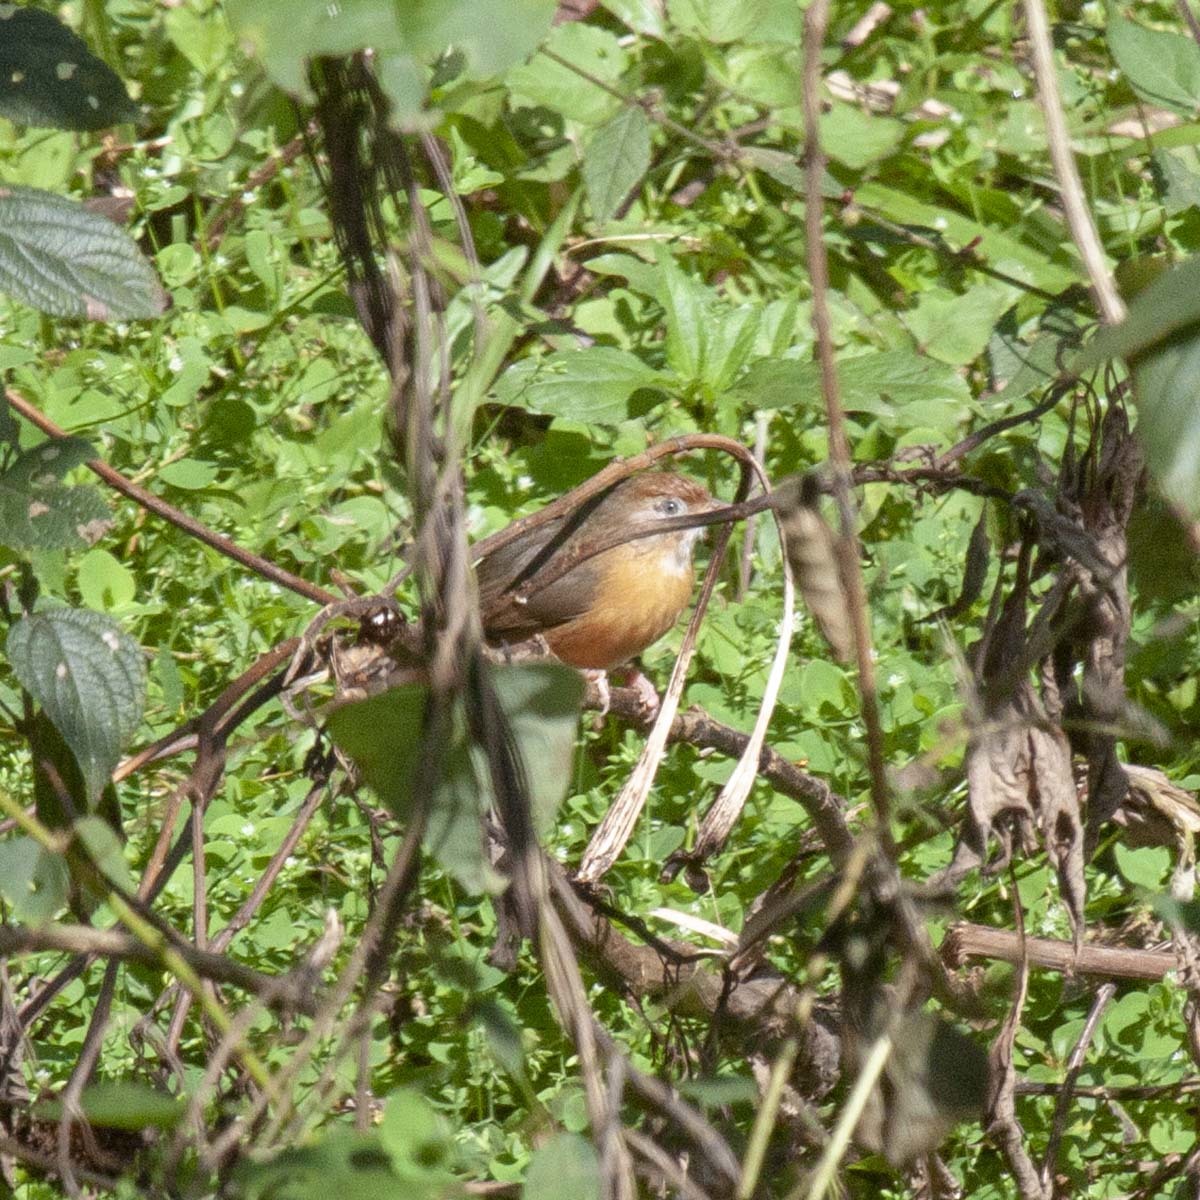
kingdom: Animalia
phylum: Chordata
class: Aves
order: Passeriformes
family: Timaliidae
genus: Dumetia
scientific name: Dumetia hyperythra
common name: Tawny-bellied babbler
